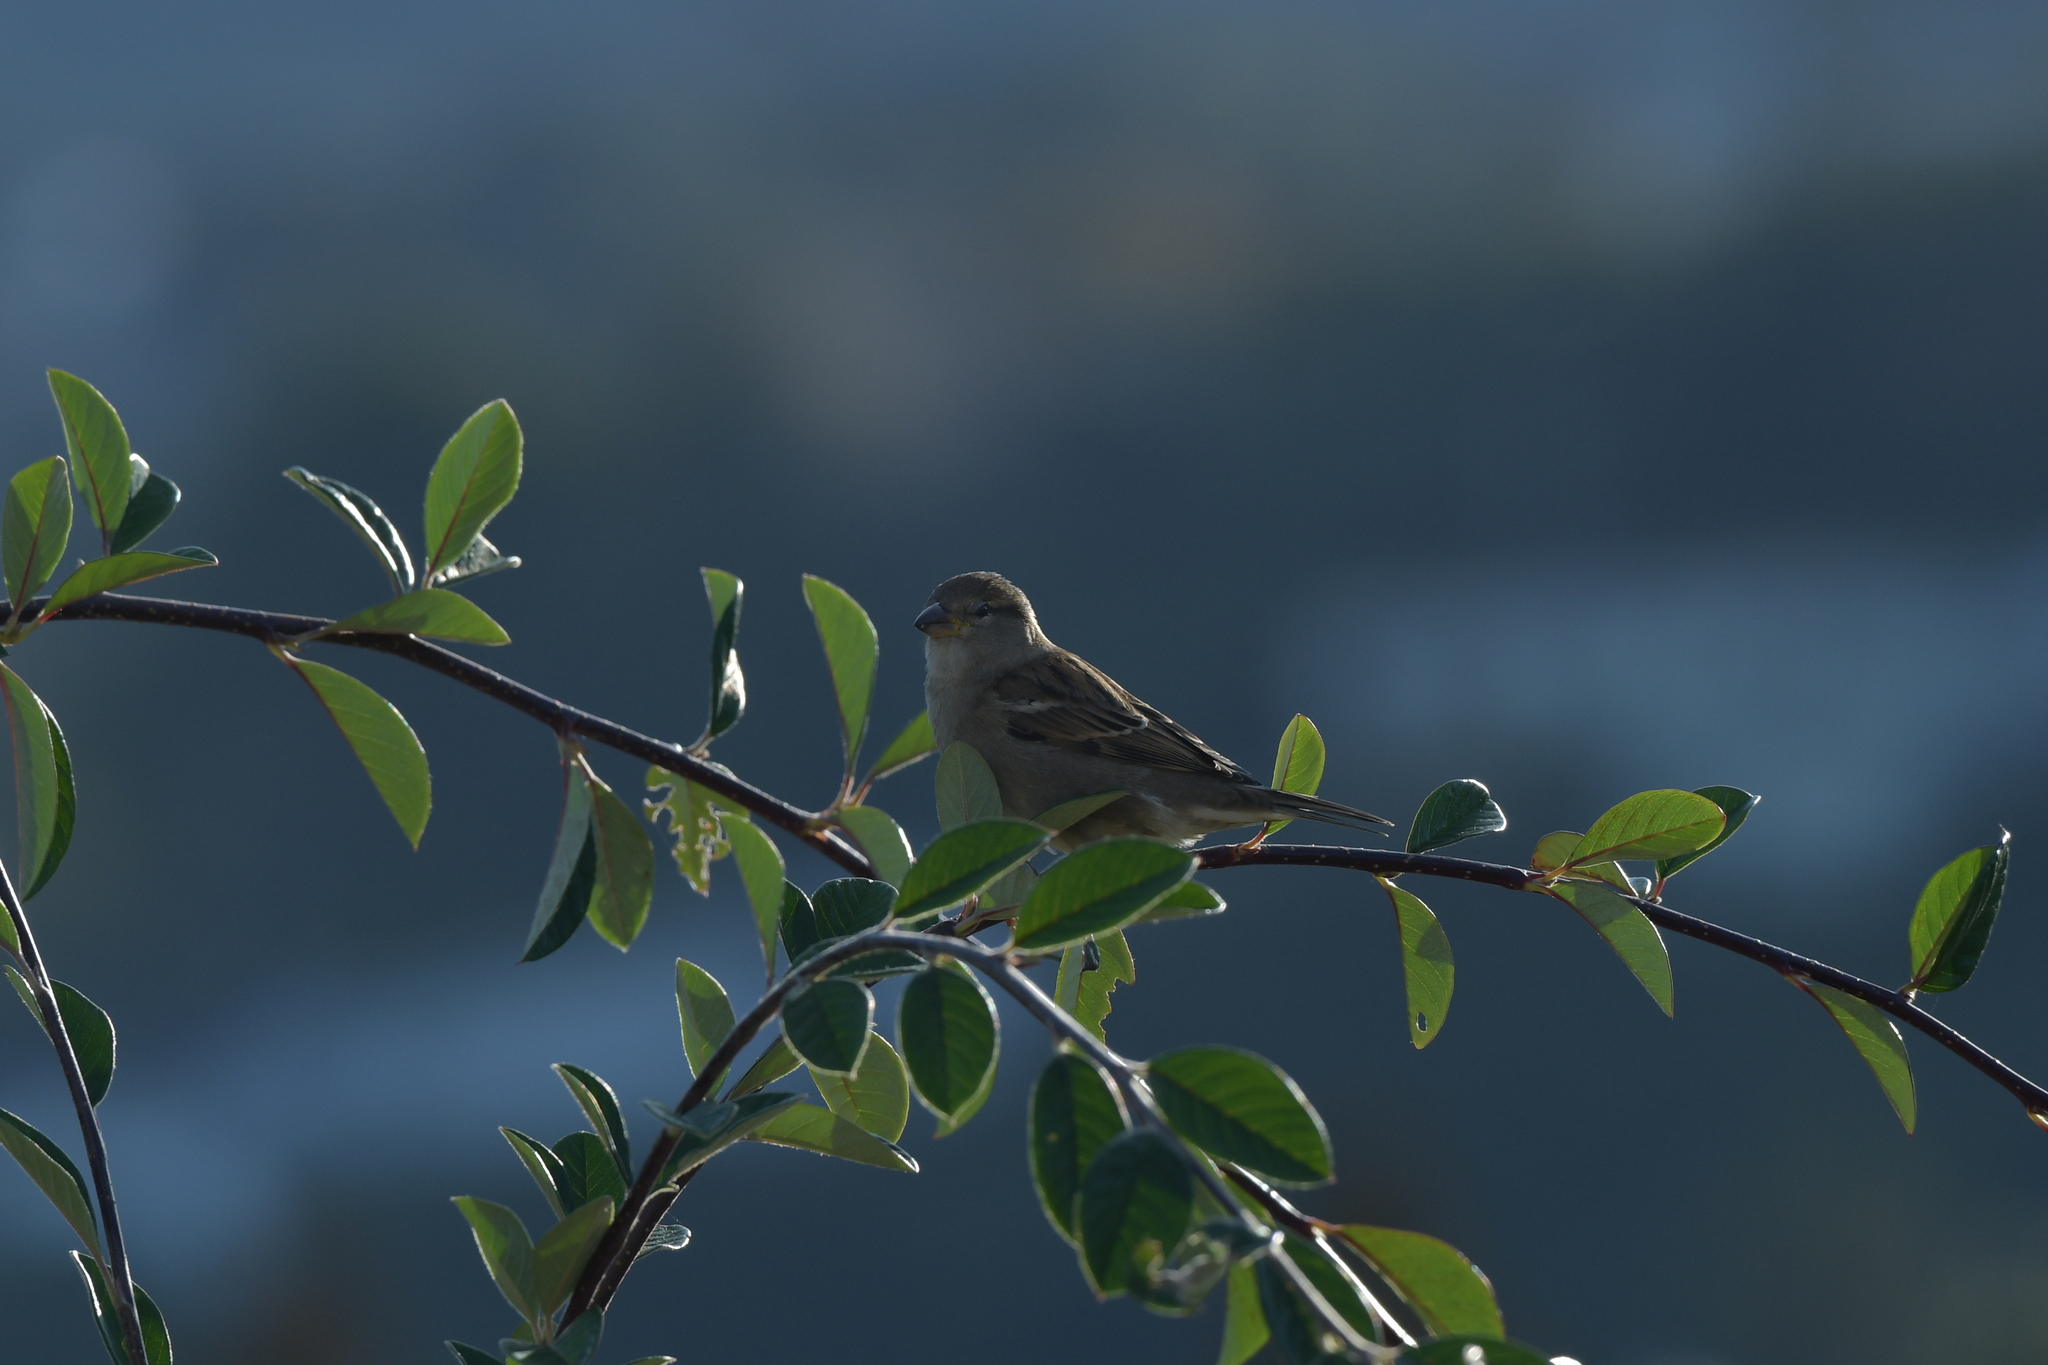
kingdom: Animalia
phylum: Chordata
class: Aves
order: Passeriformes
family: Passeridae
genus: Passer
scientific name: Passer domesticus
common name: House sparrow
